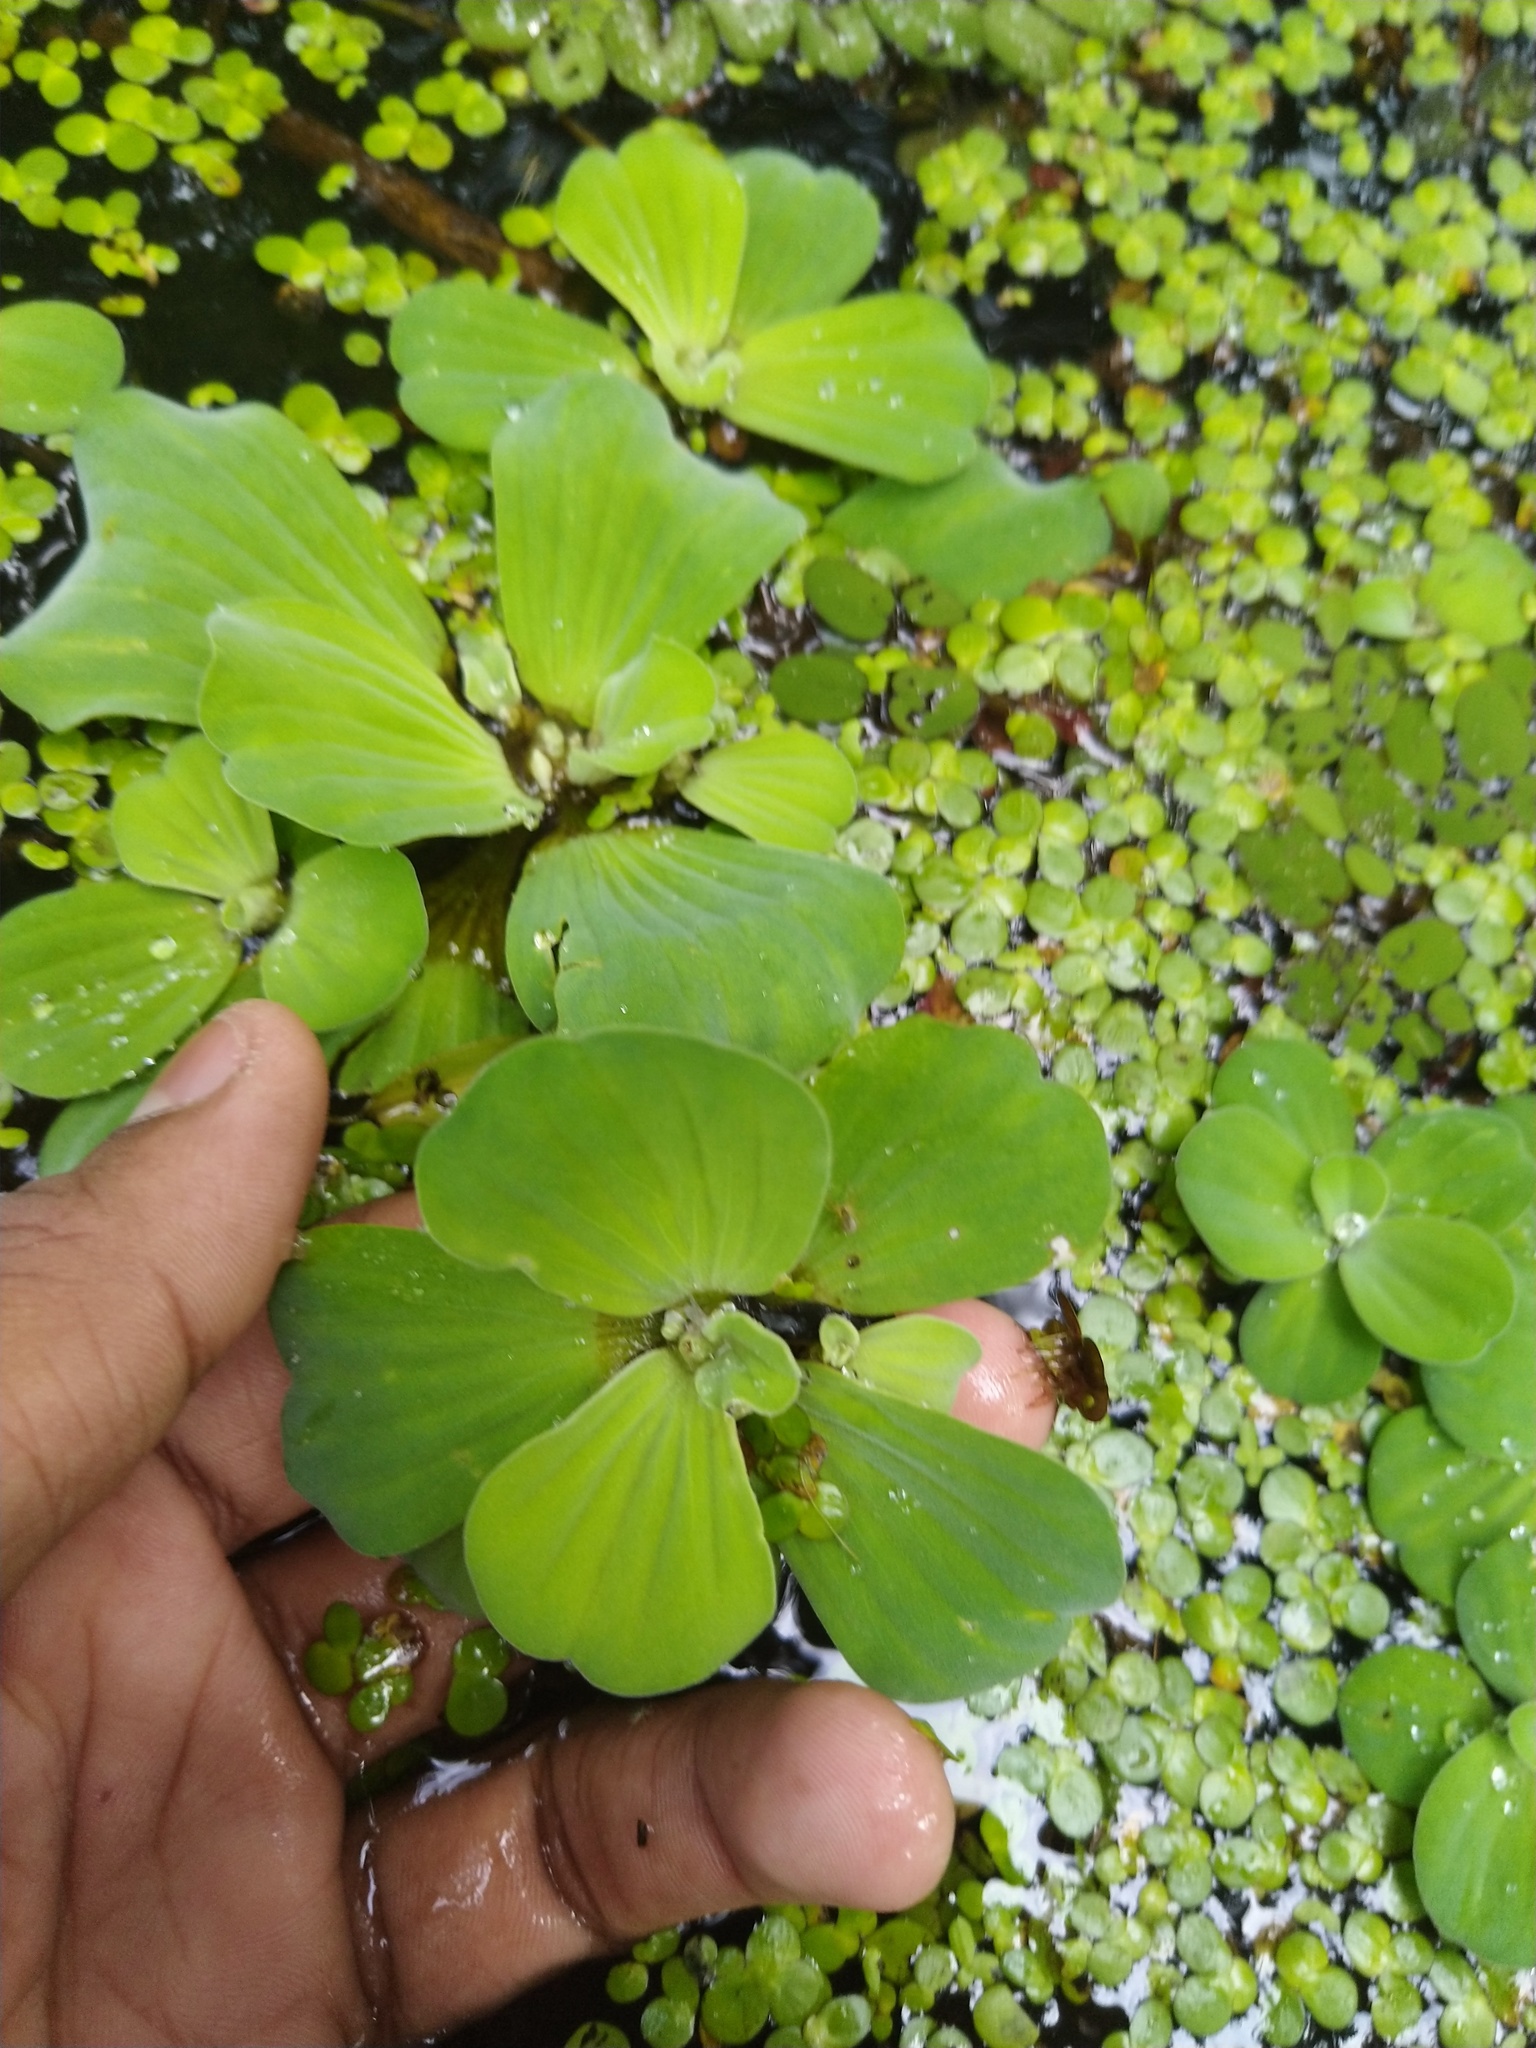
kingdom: Plantae
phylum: Tracheophyta
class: Liliopsida
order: Alismatales
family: Araceae
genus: Pistia
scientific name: Pistia stratiotes
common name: Water lettuce
